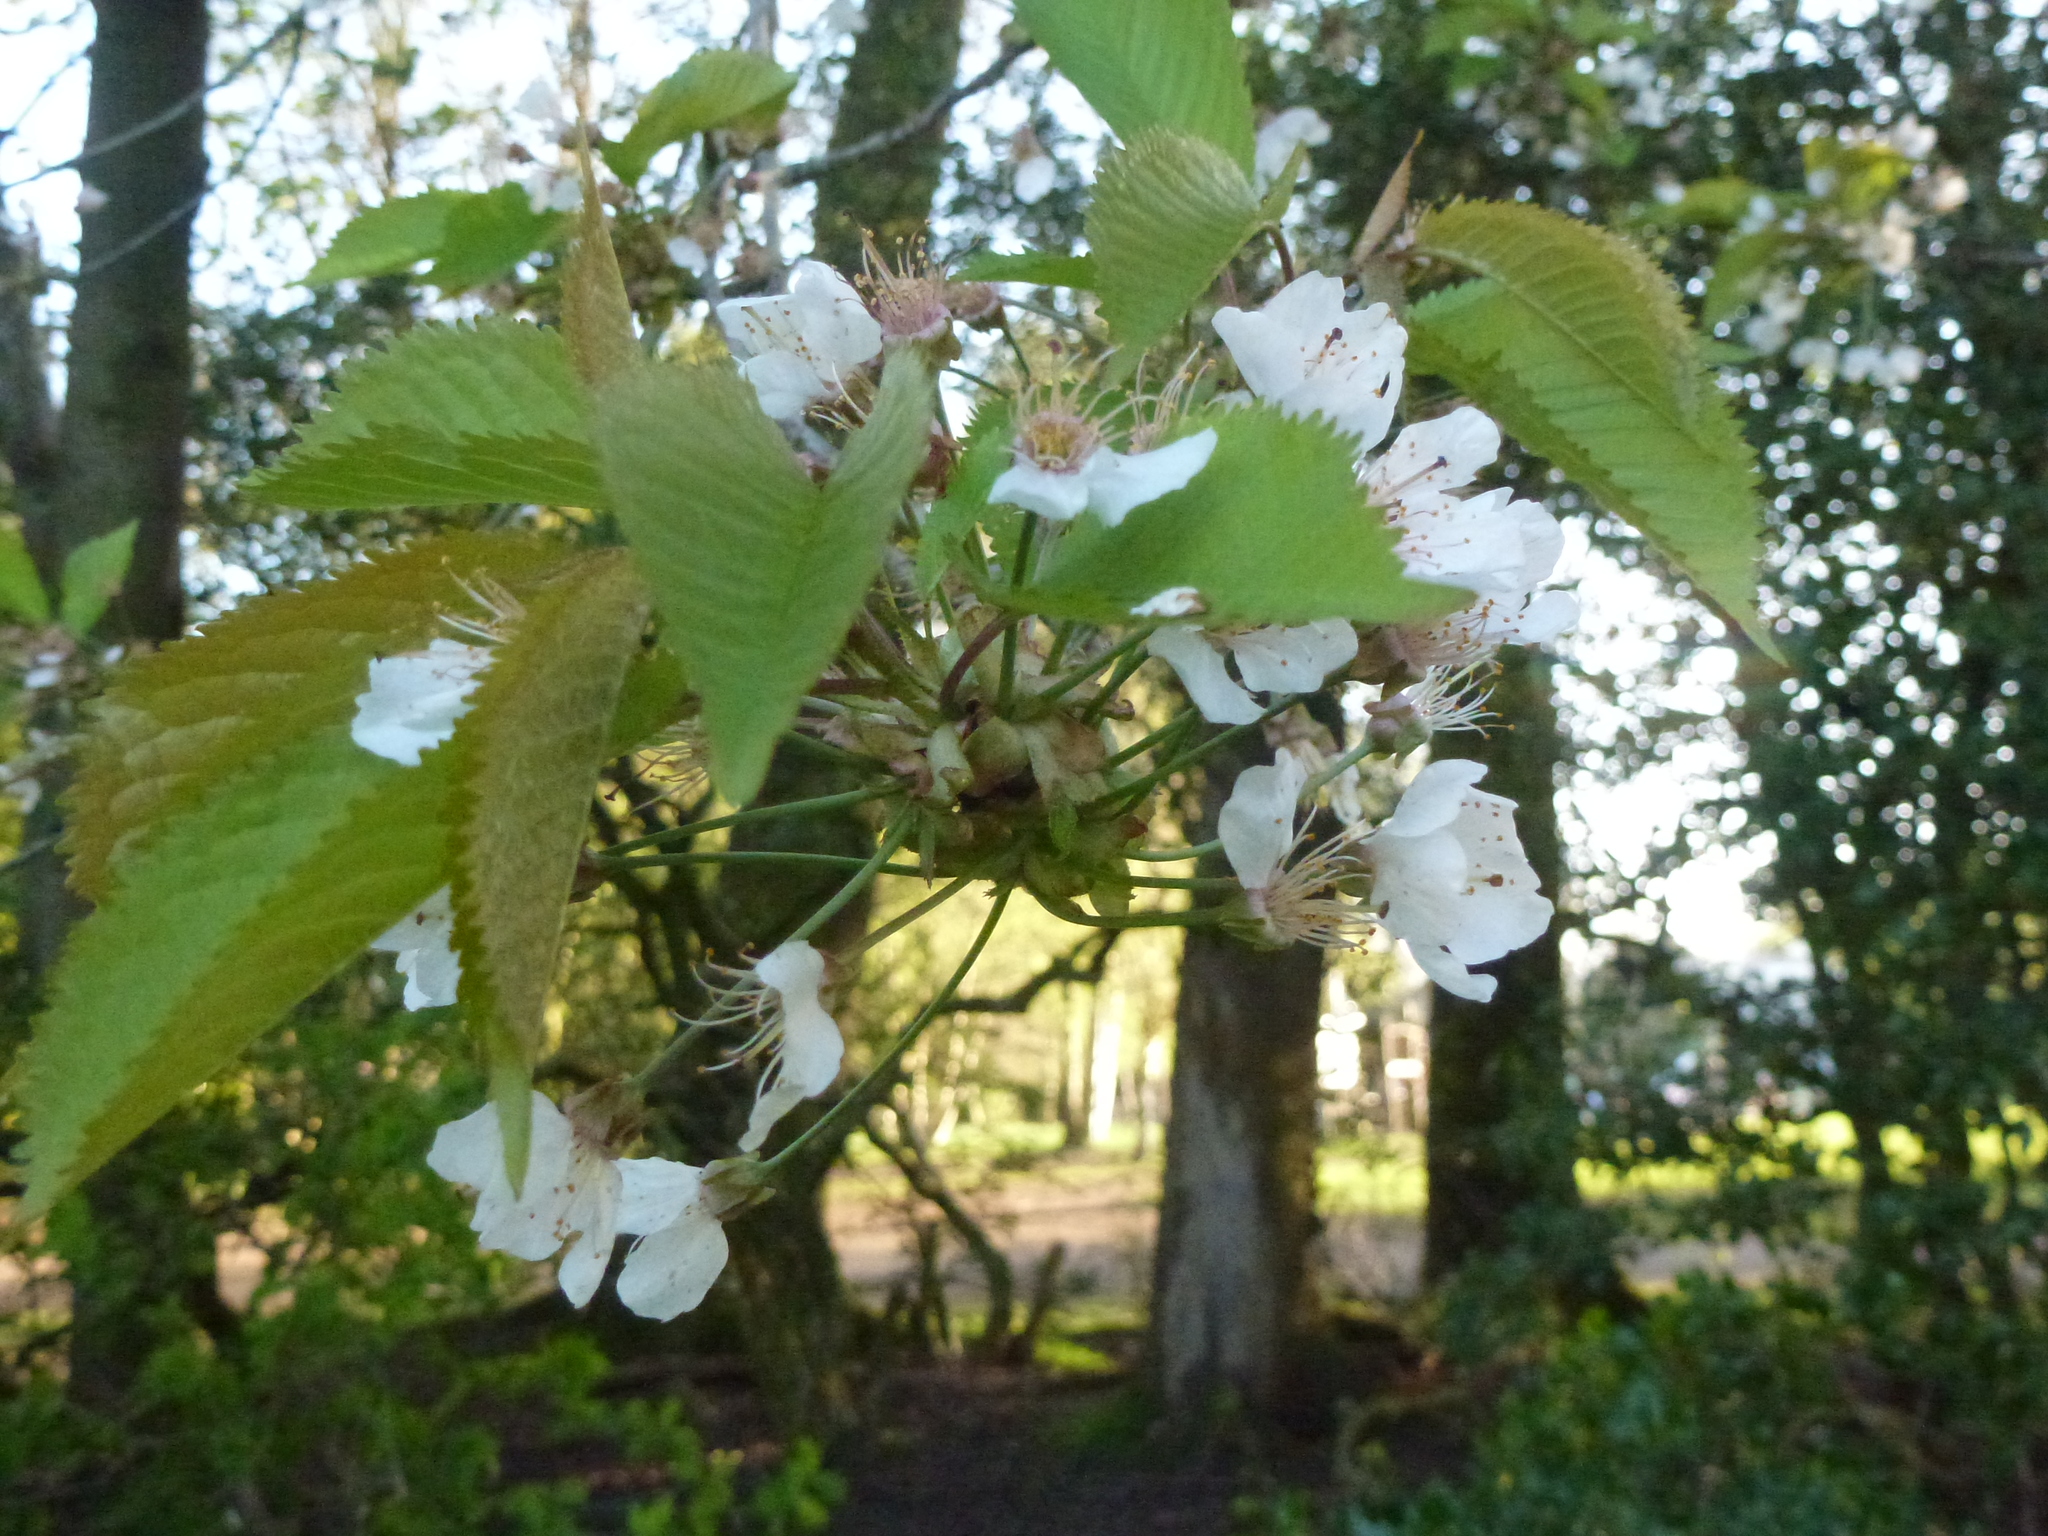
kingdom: Plantae
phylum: Tracheophyta
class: Magnoliopsida
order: Rosales
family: Rosaceae
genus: Prunus
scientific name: Prunus avium
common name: Sweet cherry
